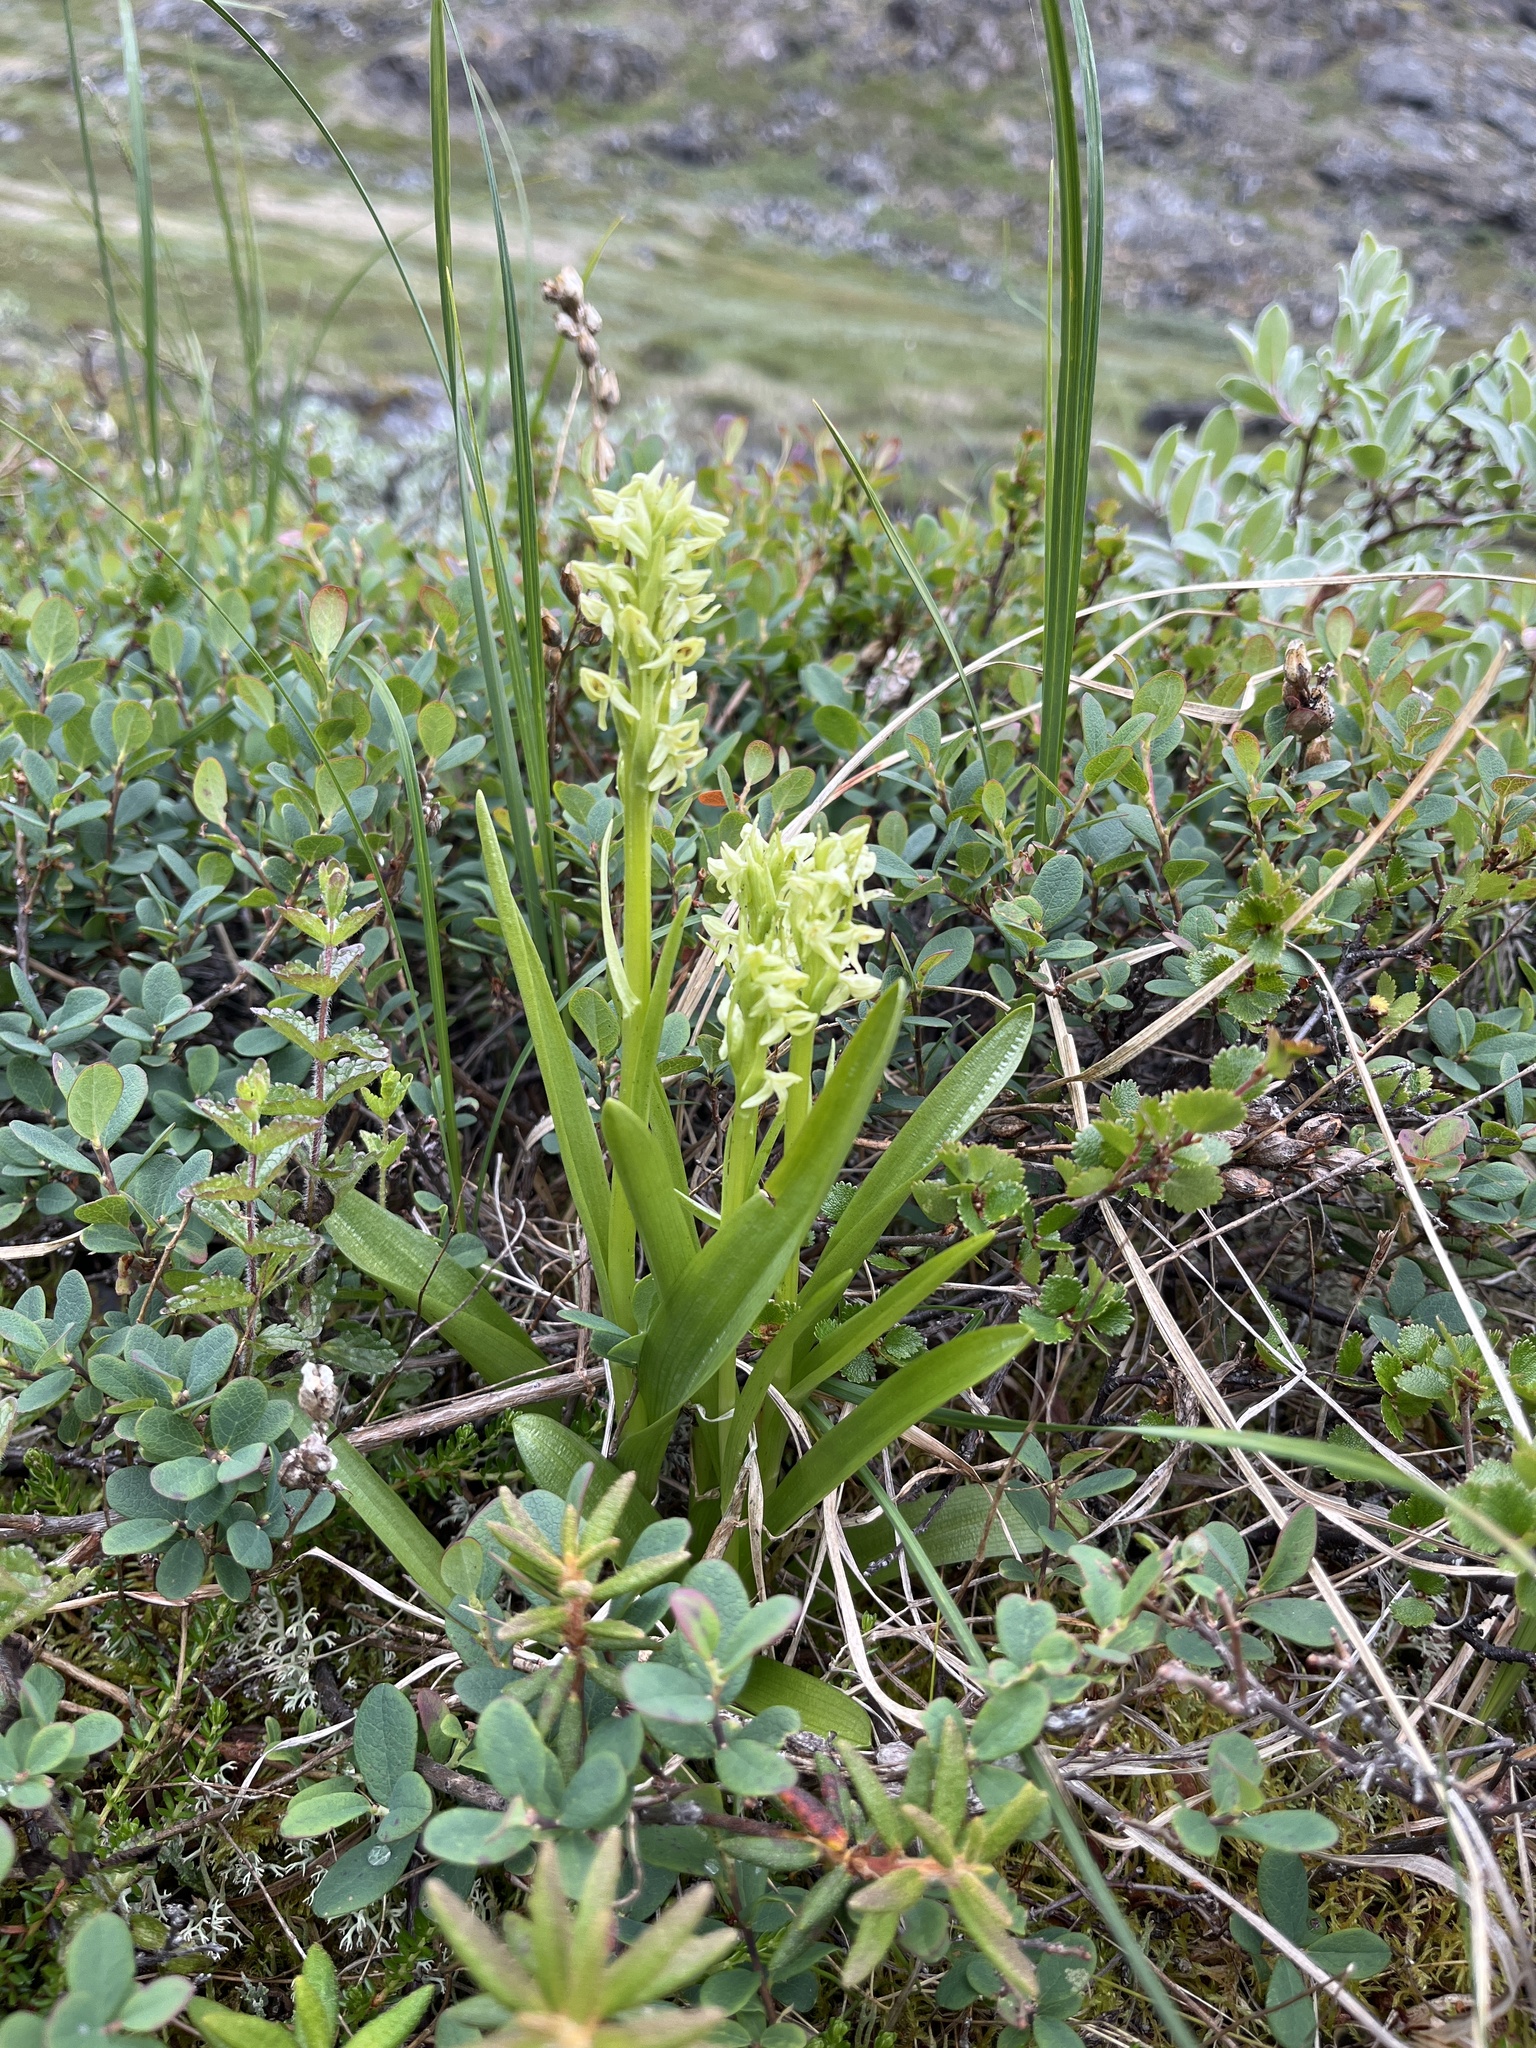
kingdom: Plantae
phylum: Tracheophyta
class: Liliopsida
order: Asparagales
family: Orchidaceae
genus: Platanthera
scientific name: Platanthera hyperborea
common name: Northern green orchid
